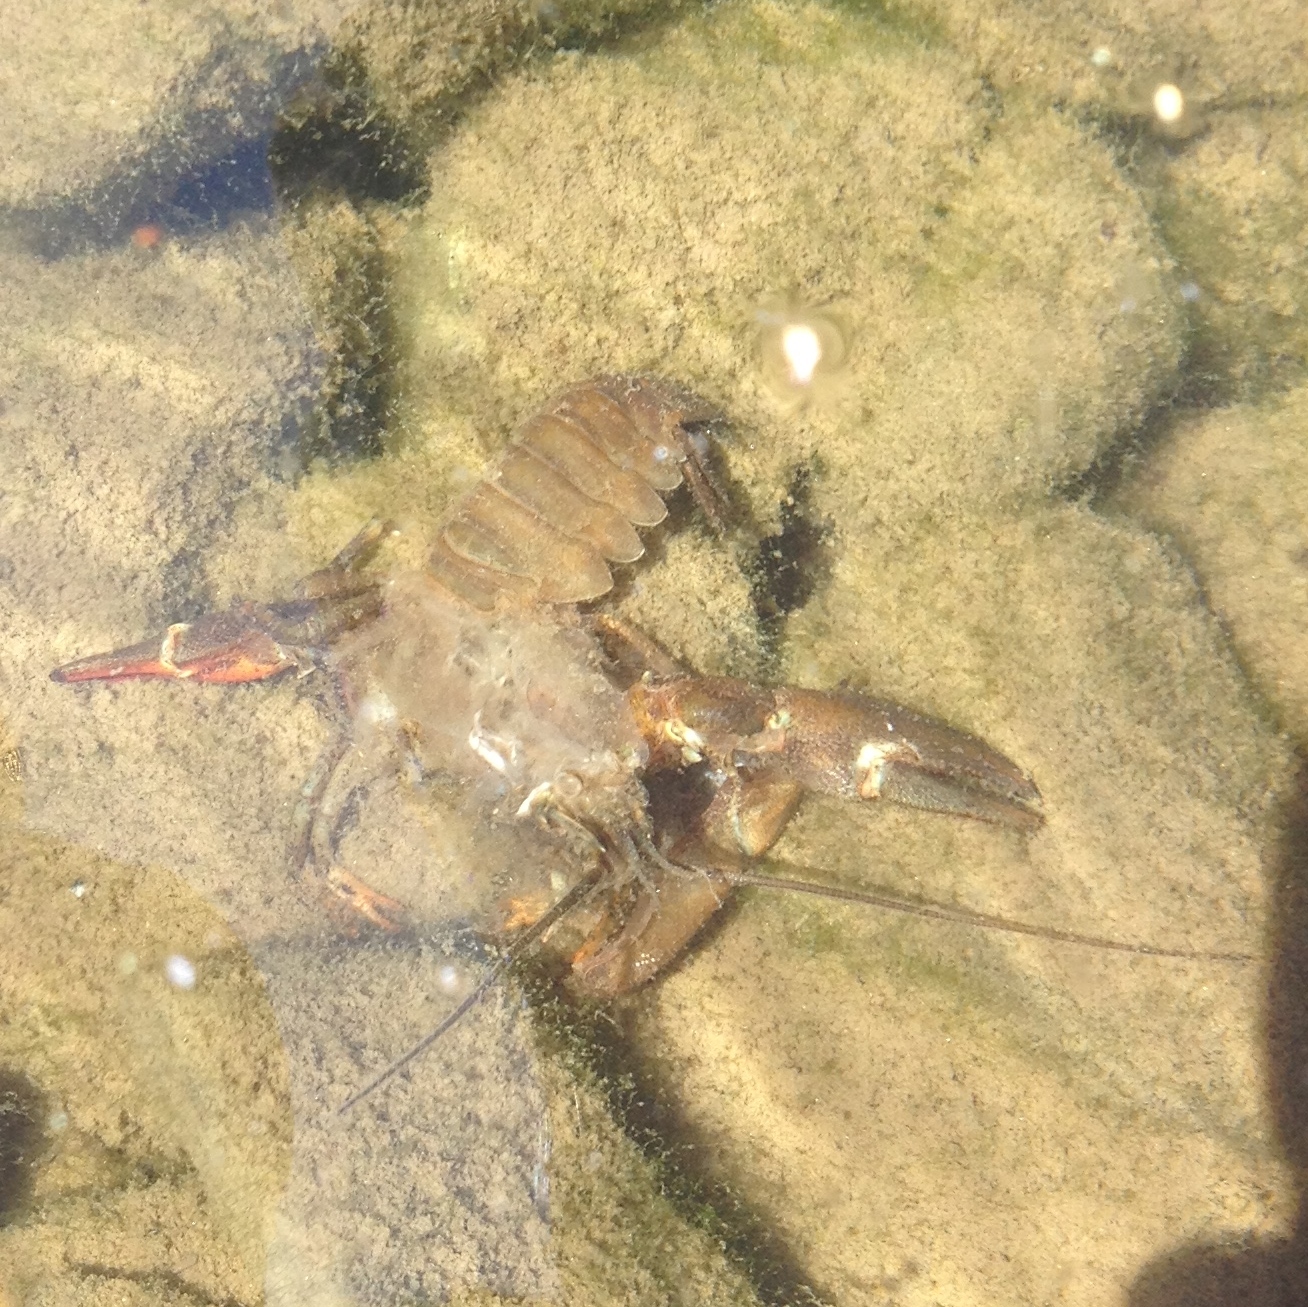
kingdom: Animalia
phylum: Arthropoda
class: Malacostraca
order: Decapoda
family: Astacidae
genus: Pacifastacus
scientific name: Pacifastacus leniusculus
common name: Signal crayfish
